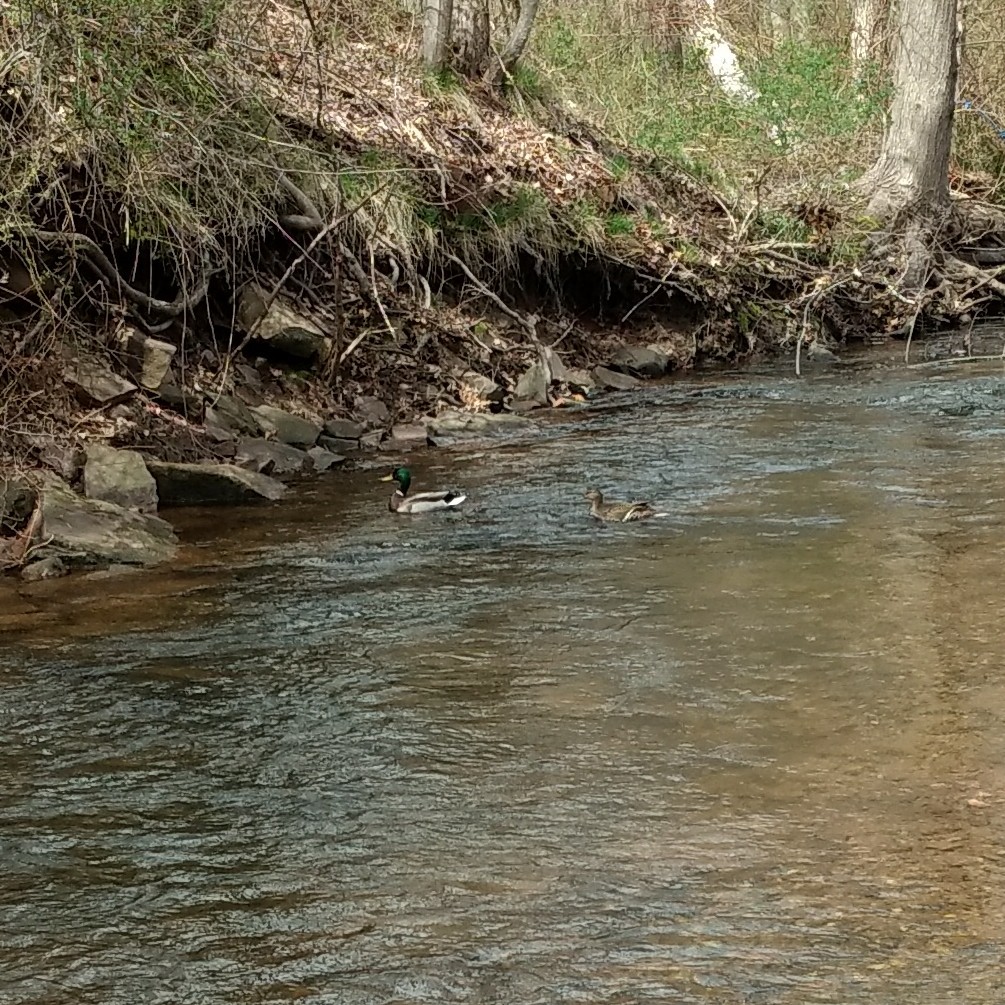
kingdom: Animalia
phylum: Chordata
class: Aves
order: Anseriformes
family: Anatidae
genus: Anas
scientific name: Anas platyrhynchos
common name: Mallard
